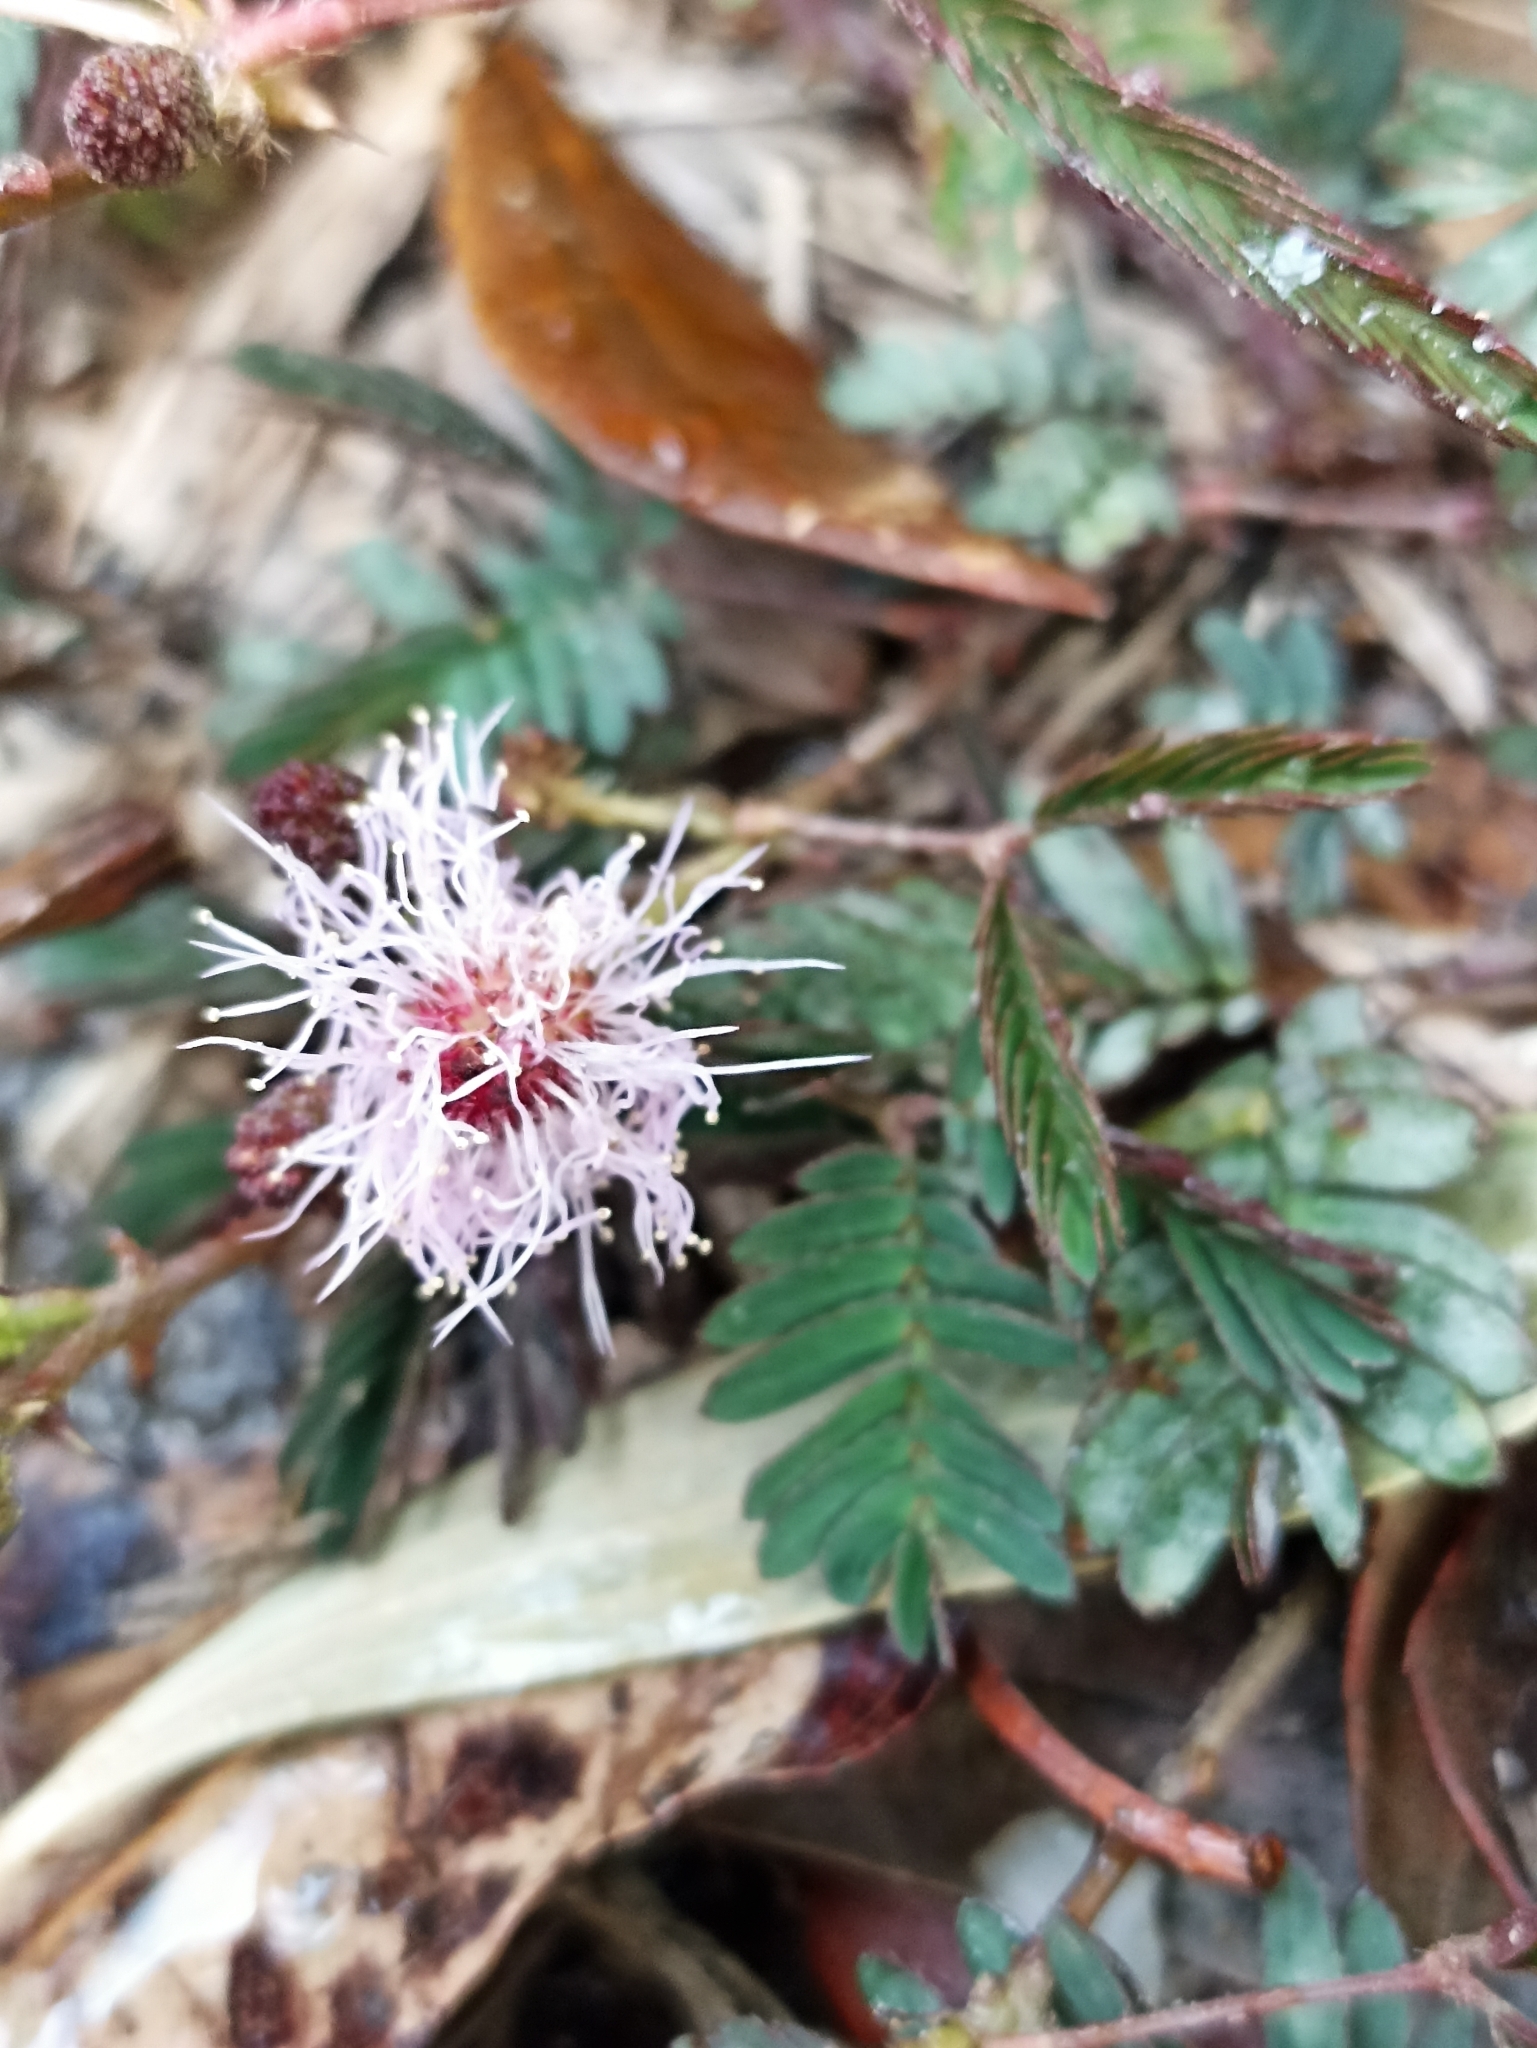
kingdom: Plantae
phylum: Tracheophyta
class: Magnoliopsida
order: Fabales
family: Fabaceae
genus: Mimosa
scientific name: Mimosa pudica
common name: Sensitive plant
